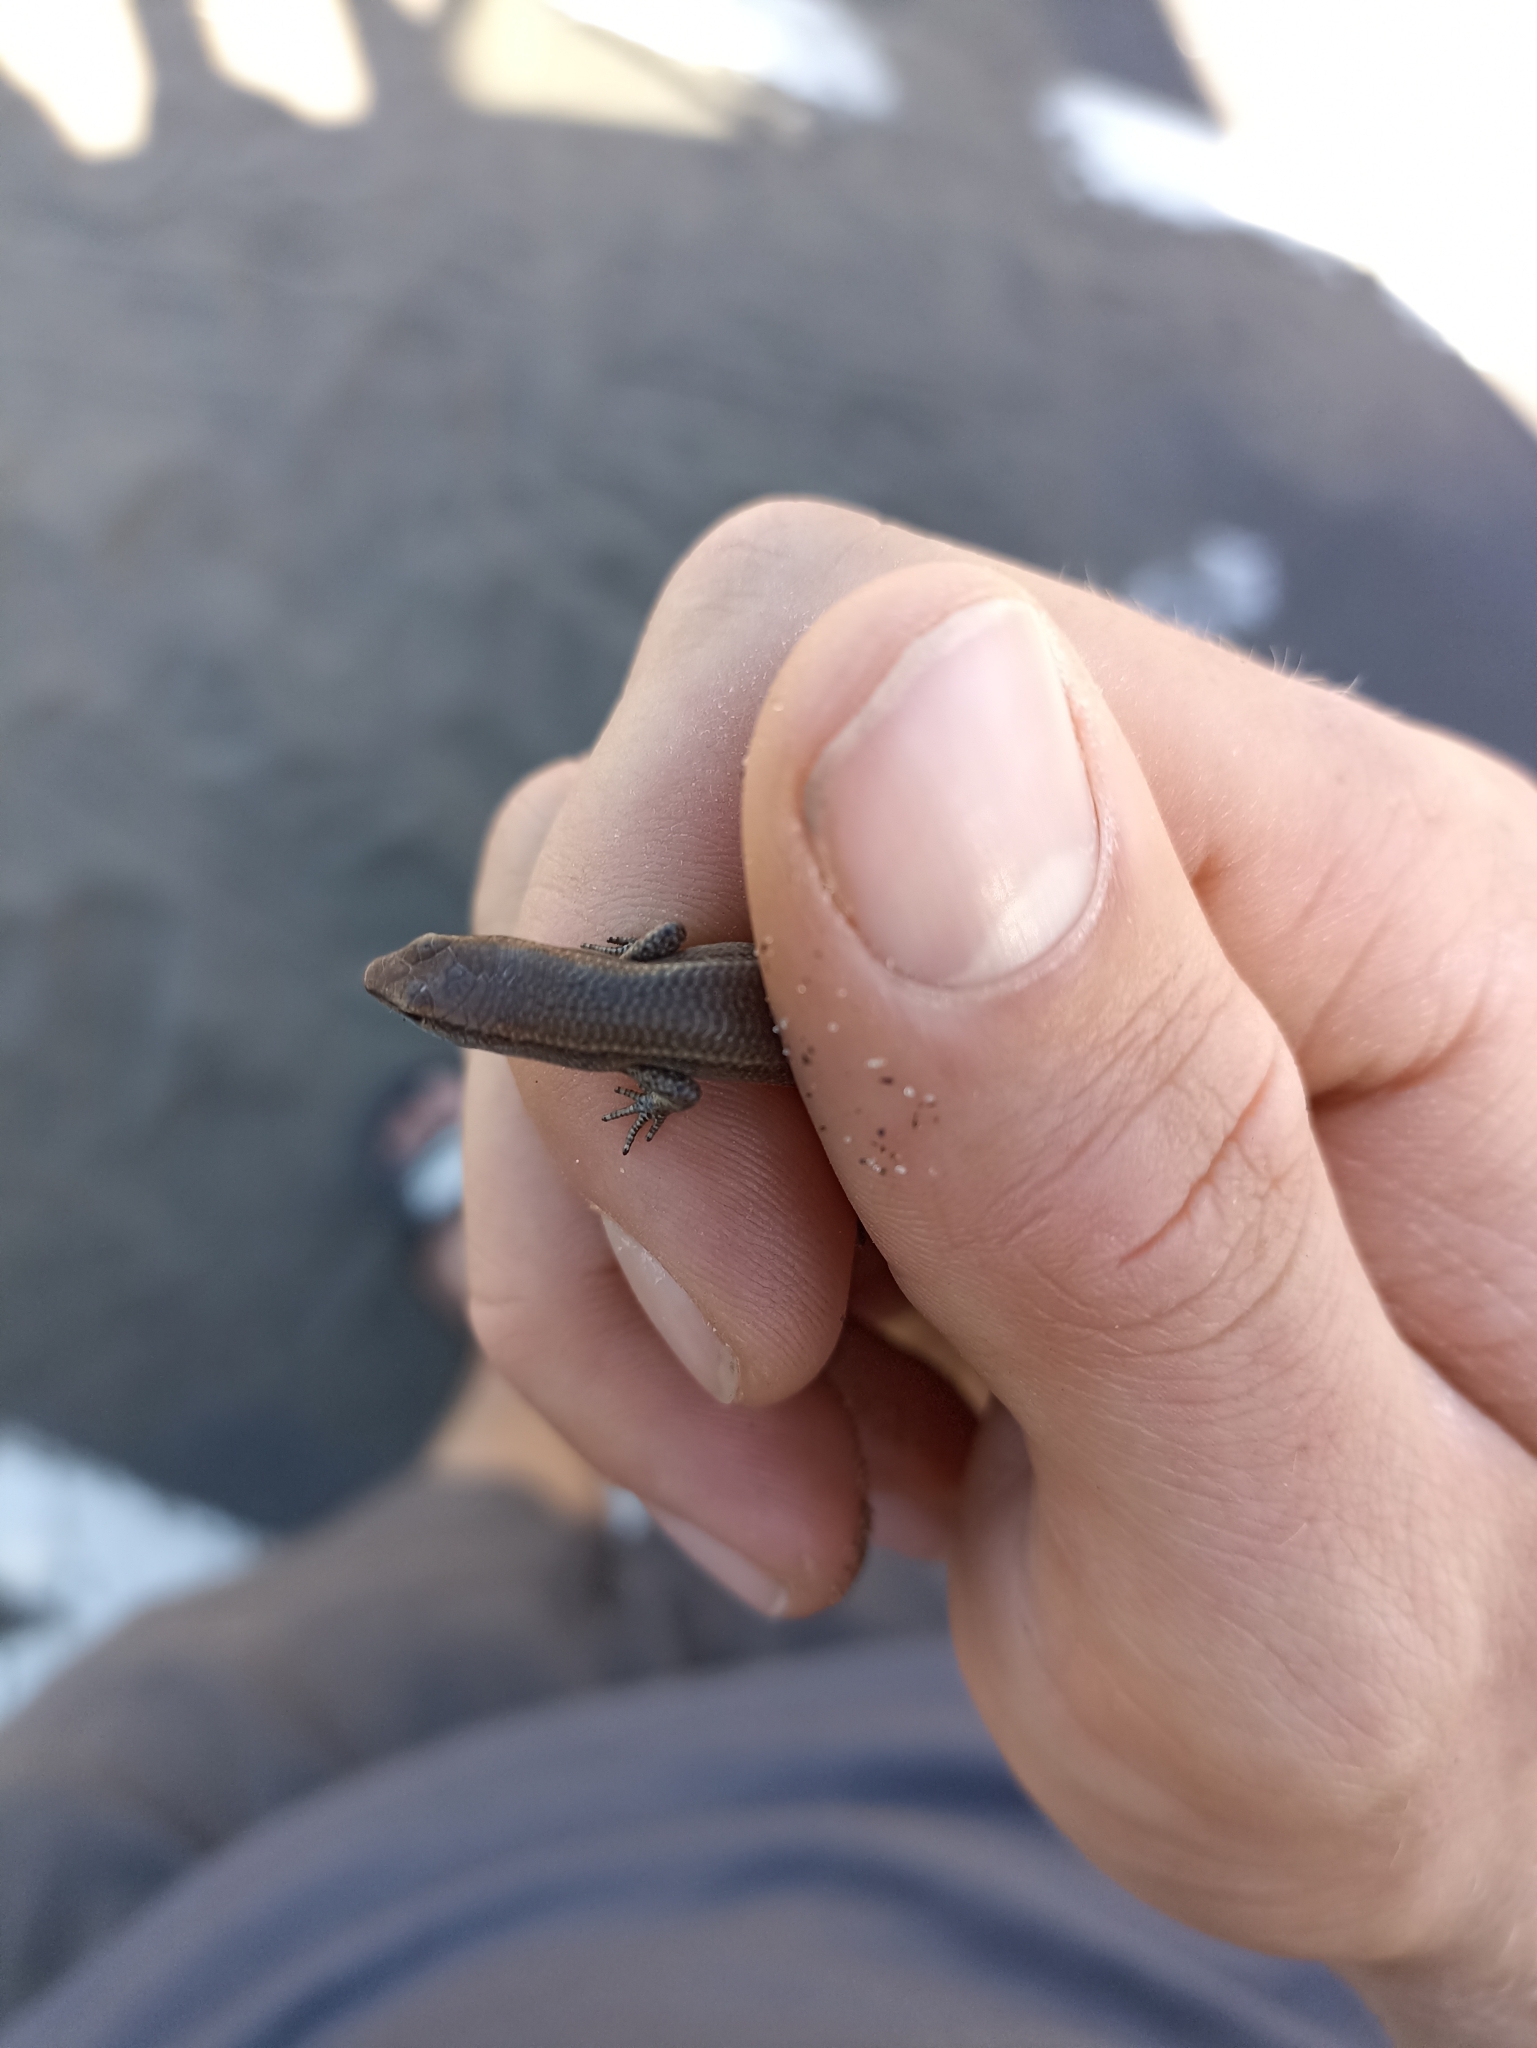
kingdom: Animalia
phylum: Chordata
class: Squamata
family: Scincidae
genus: Lampropholis
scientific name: Lampropholis delicata
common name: Plague skink
